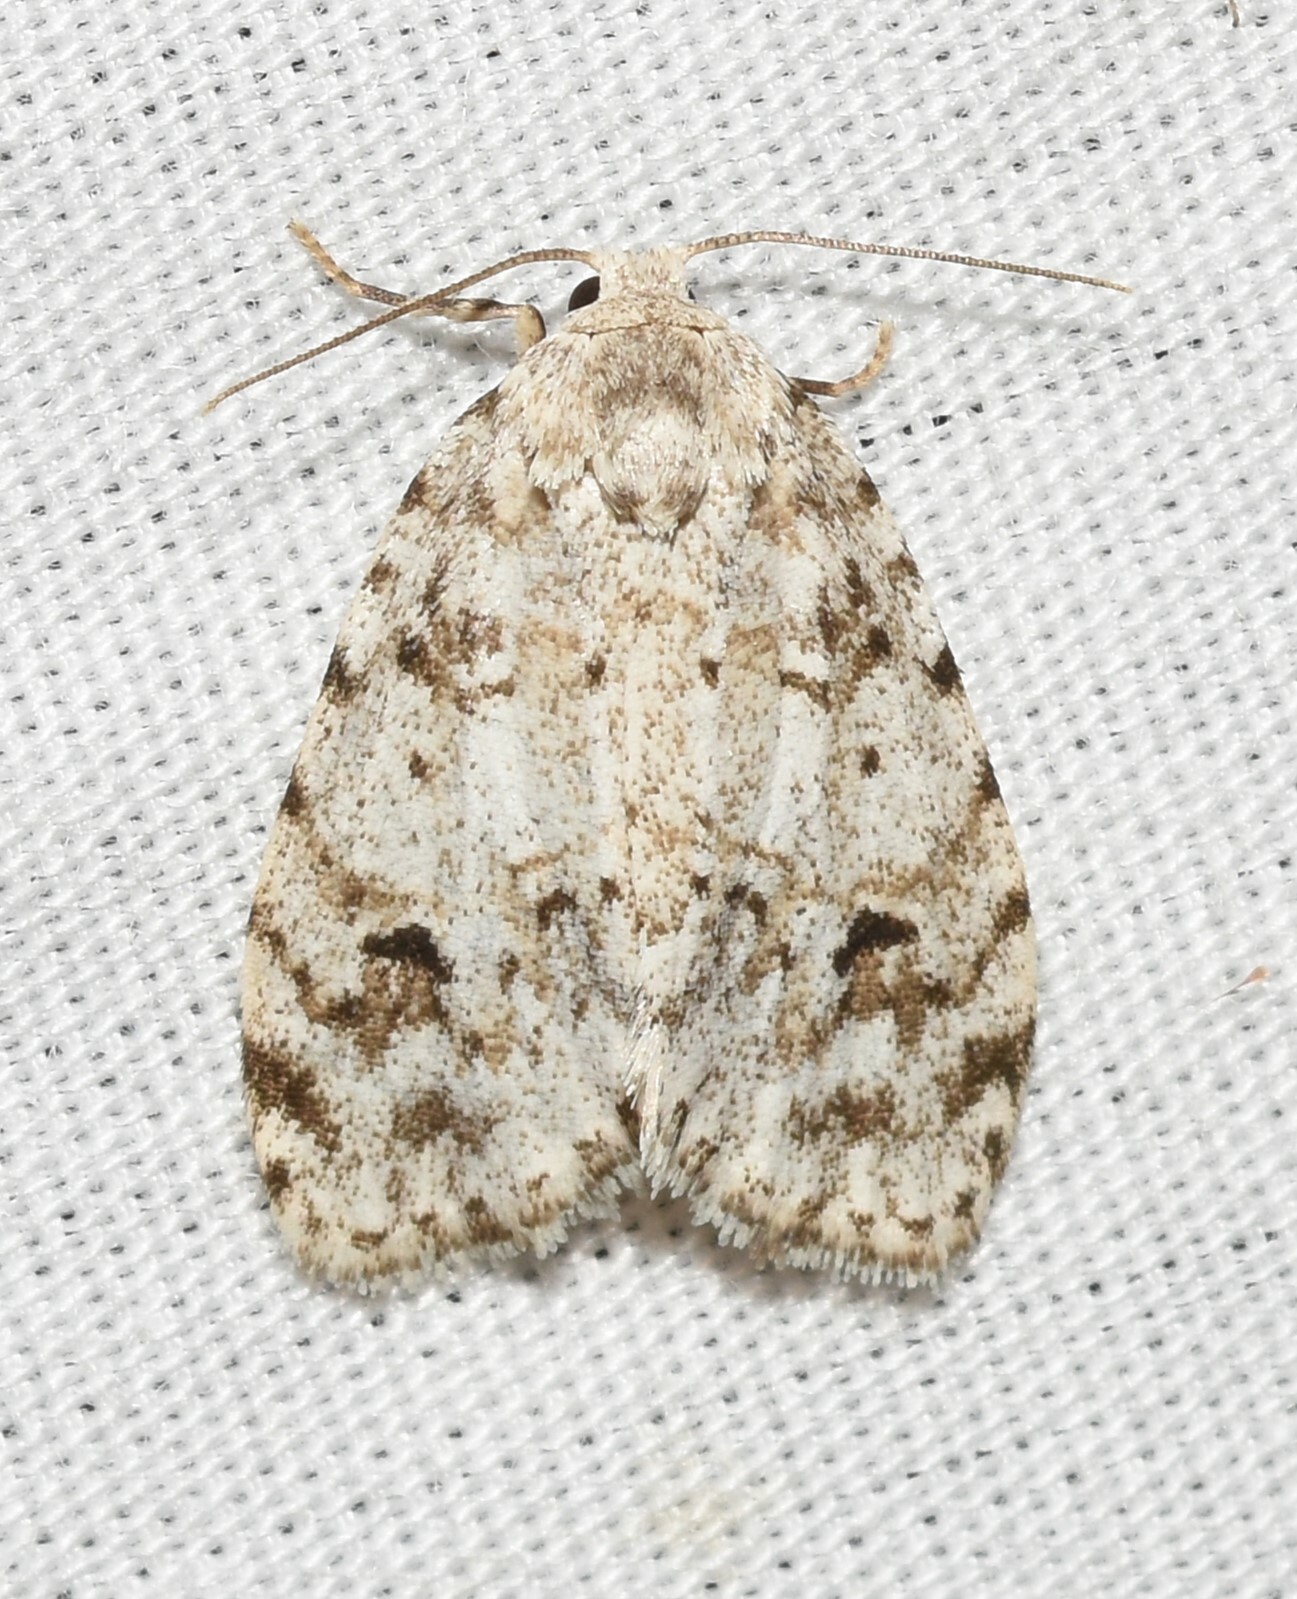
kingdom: Animalia
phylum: Arthropoda
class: Insecta
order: Lepidoptera
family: Erebidae
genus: Clemensia
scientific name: Clemensia albata
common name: Little white lichen moth
